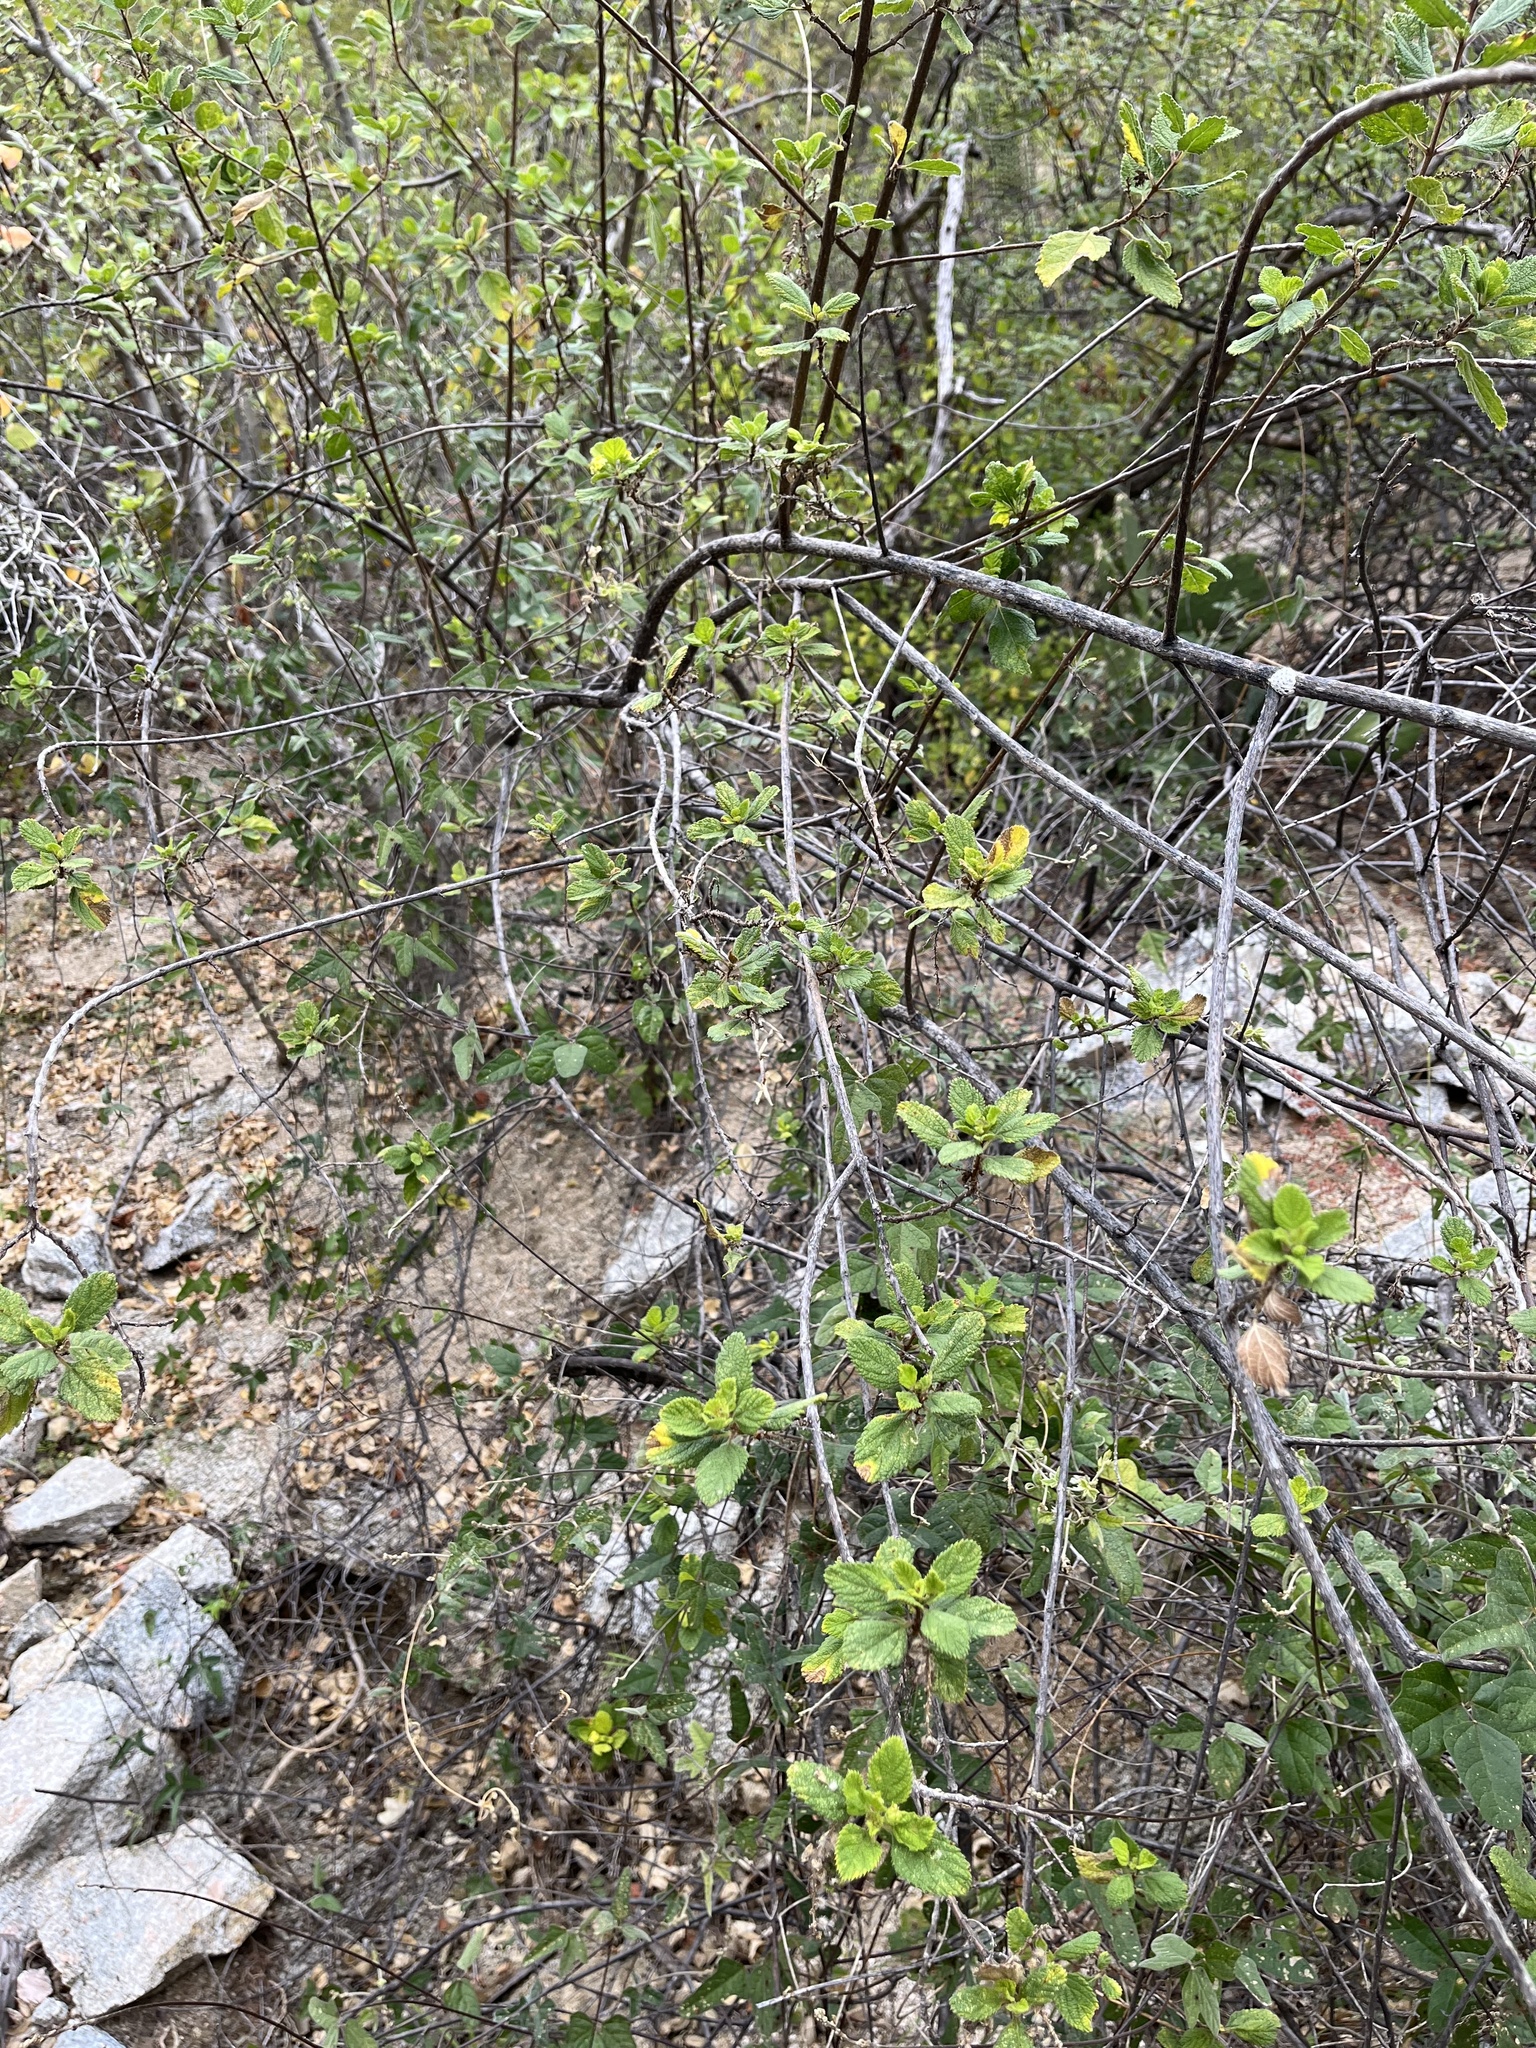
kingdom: Plantae
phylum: Tracheophyta
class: Magnoliopsida
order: Lamiales
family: Verbenaceae
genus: Aloysia
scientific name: Aloysia barbata
